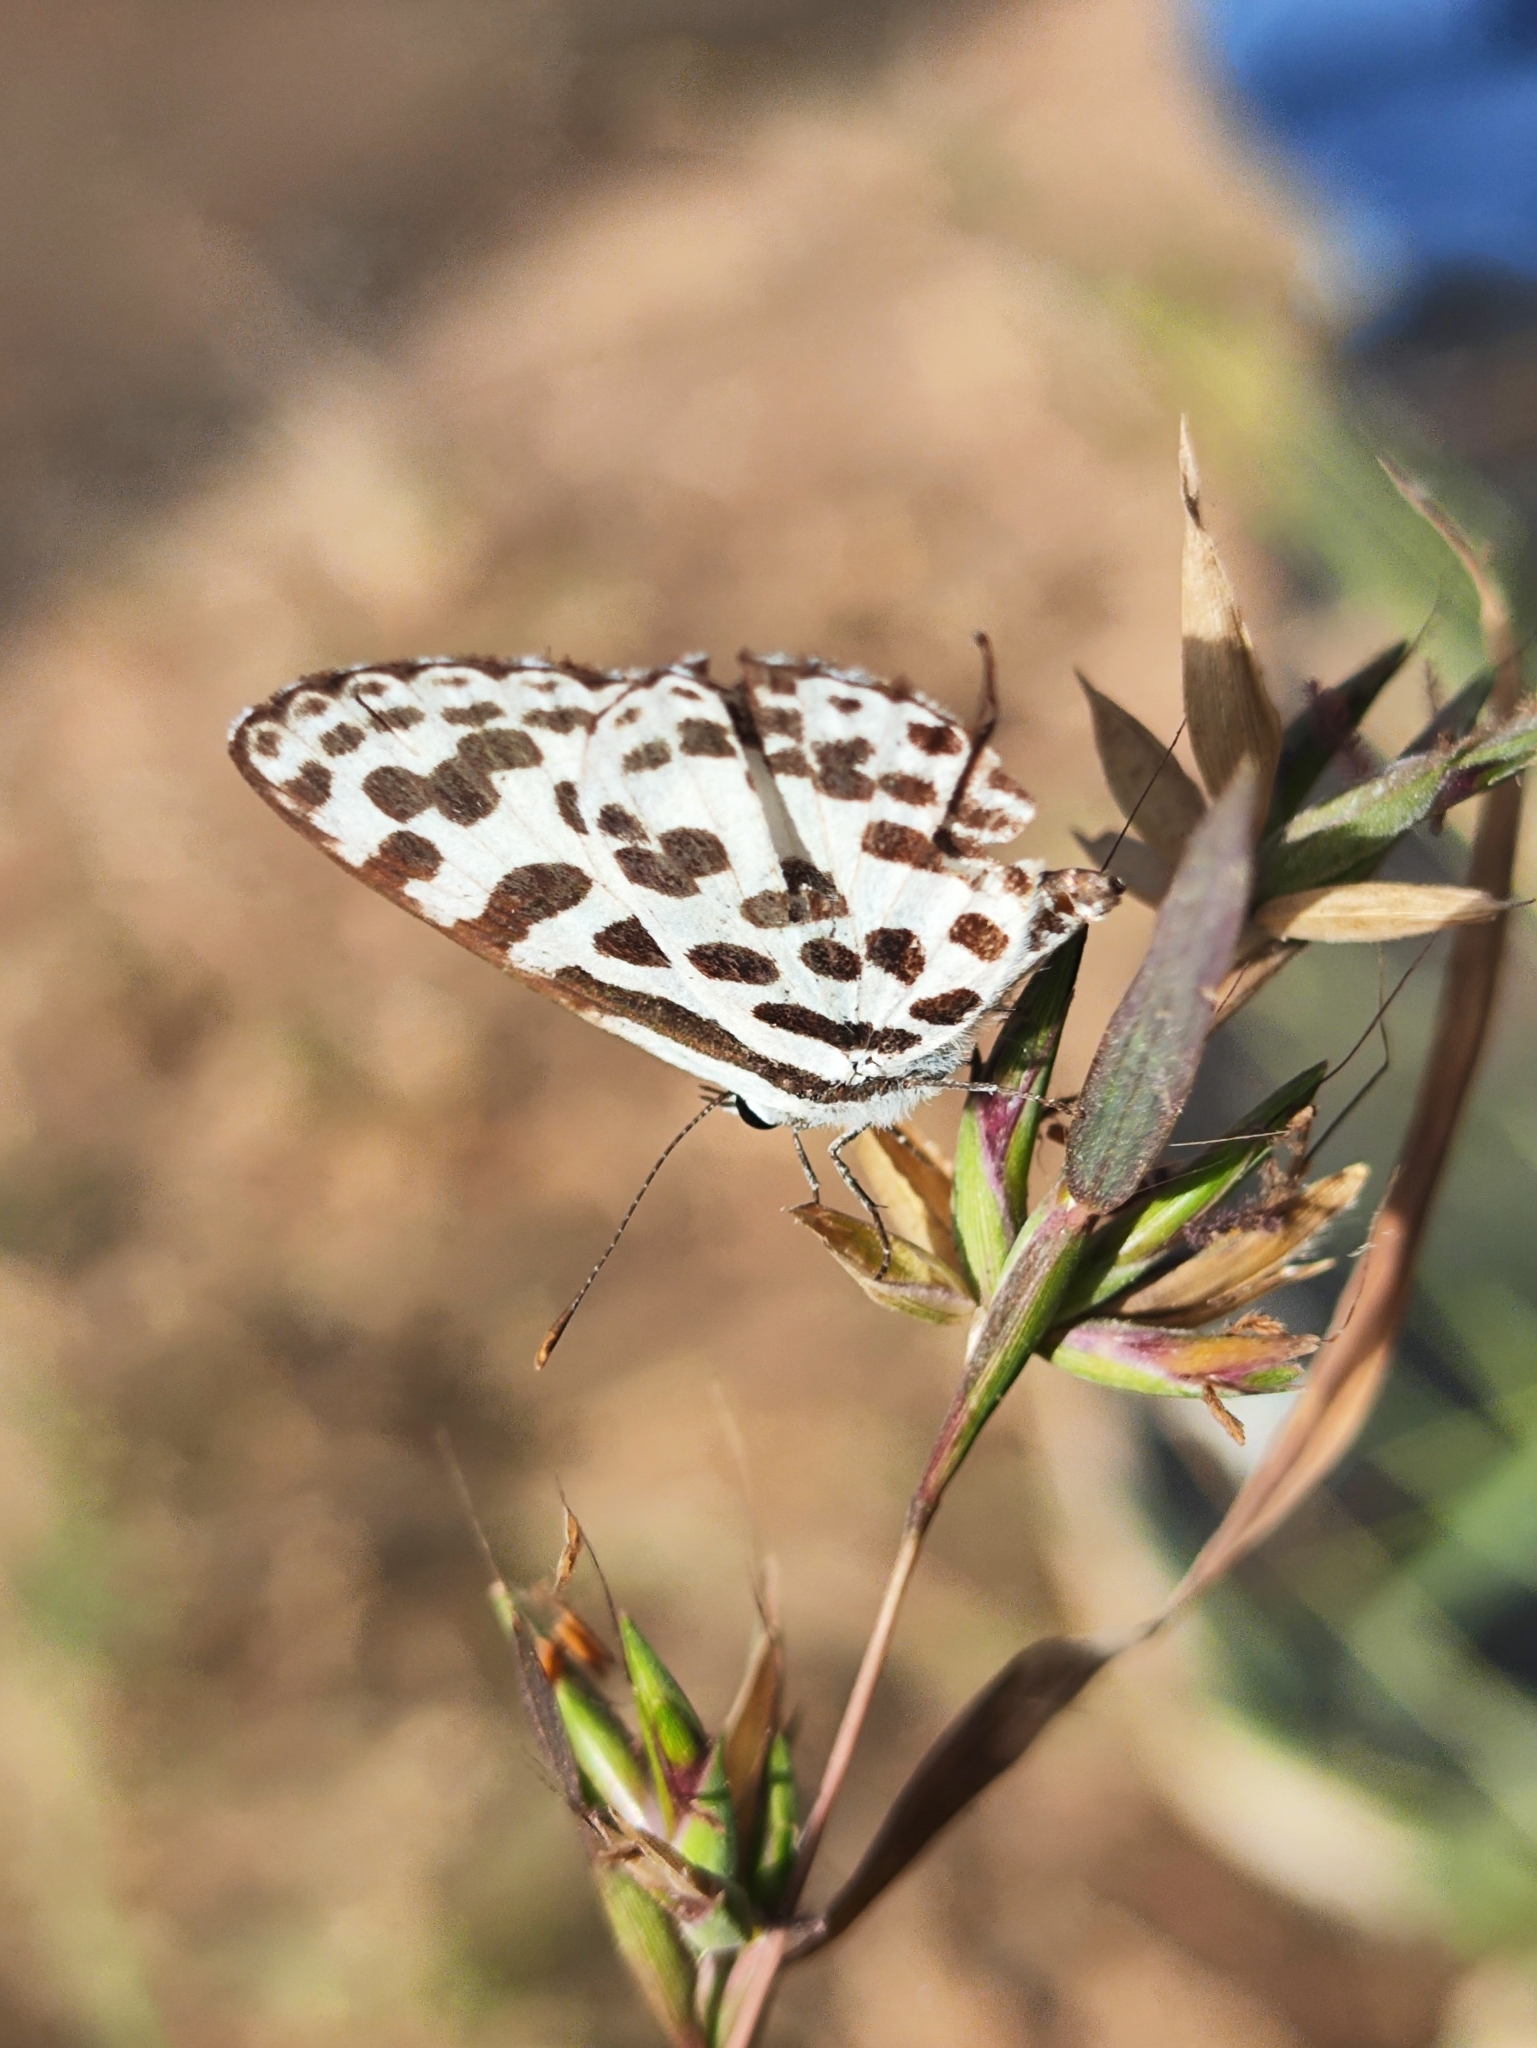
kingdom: Animalia
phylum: Arthropoda
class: Insecta
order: Lepidoptera
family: Lycaenidae
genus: Castalius
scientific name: Castalius rosimon
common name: Common pierrot
